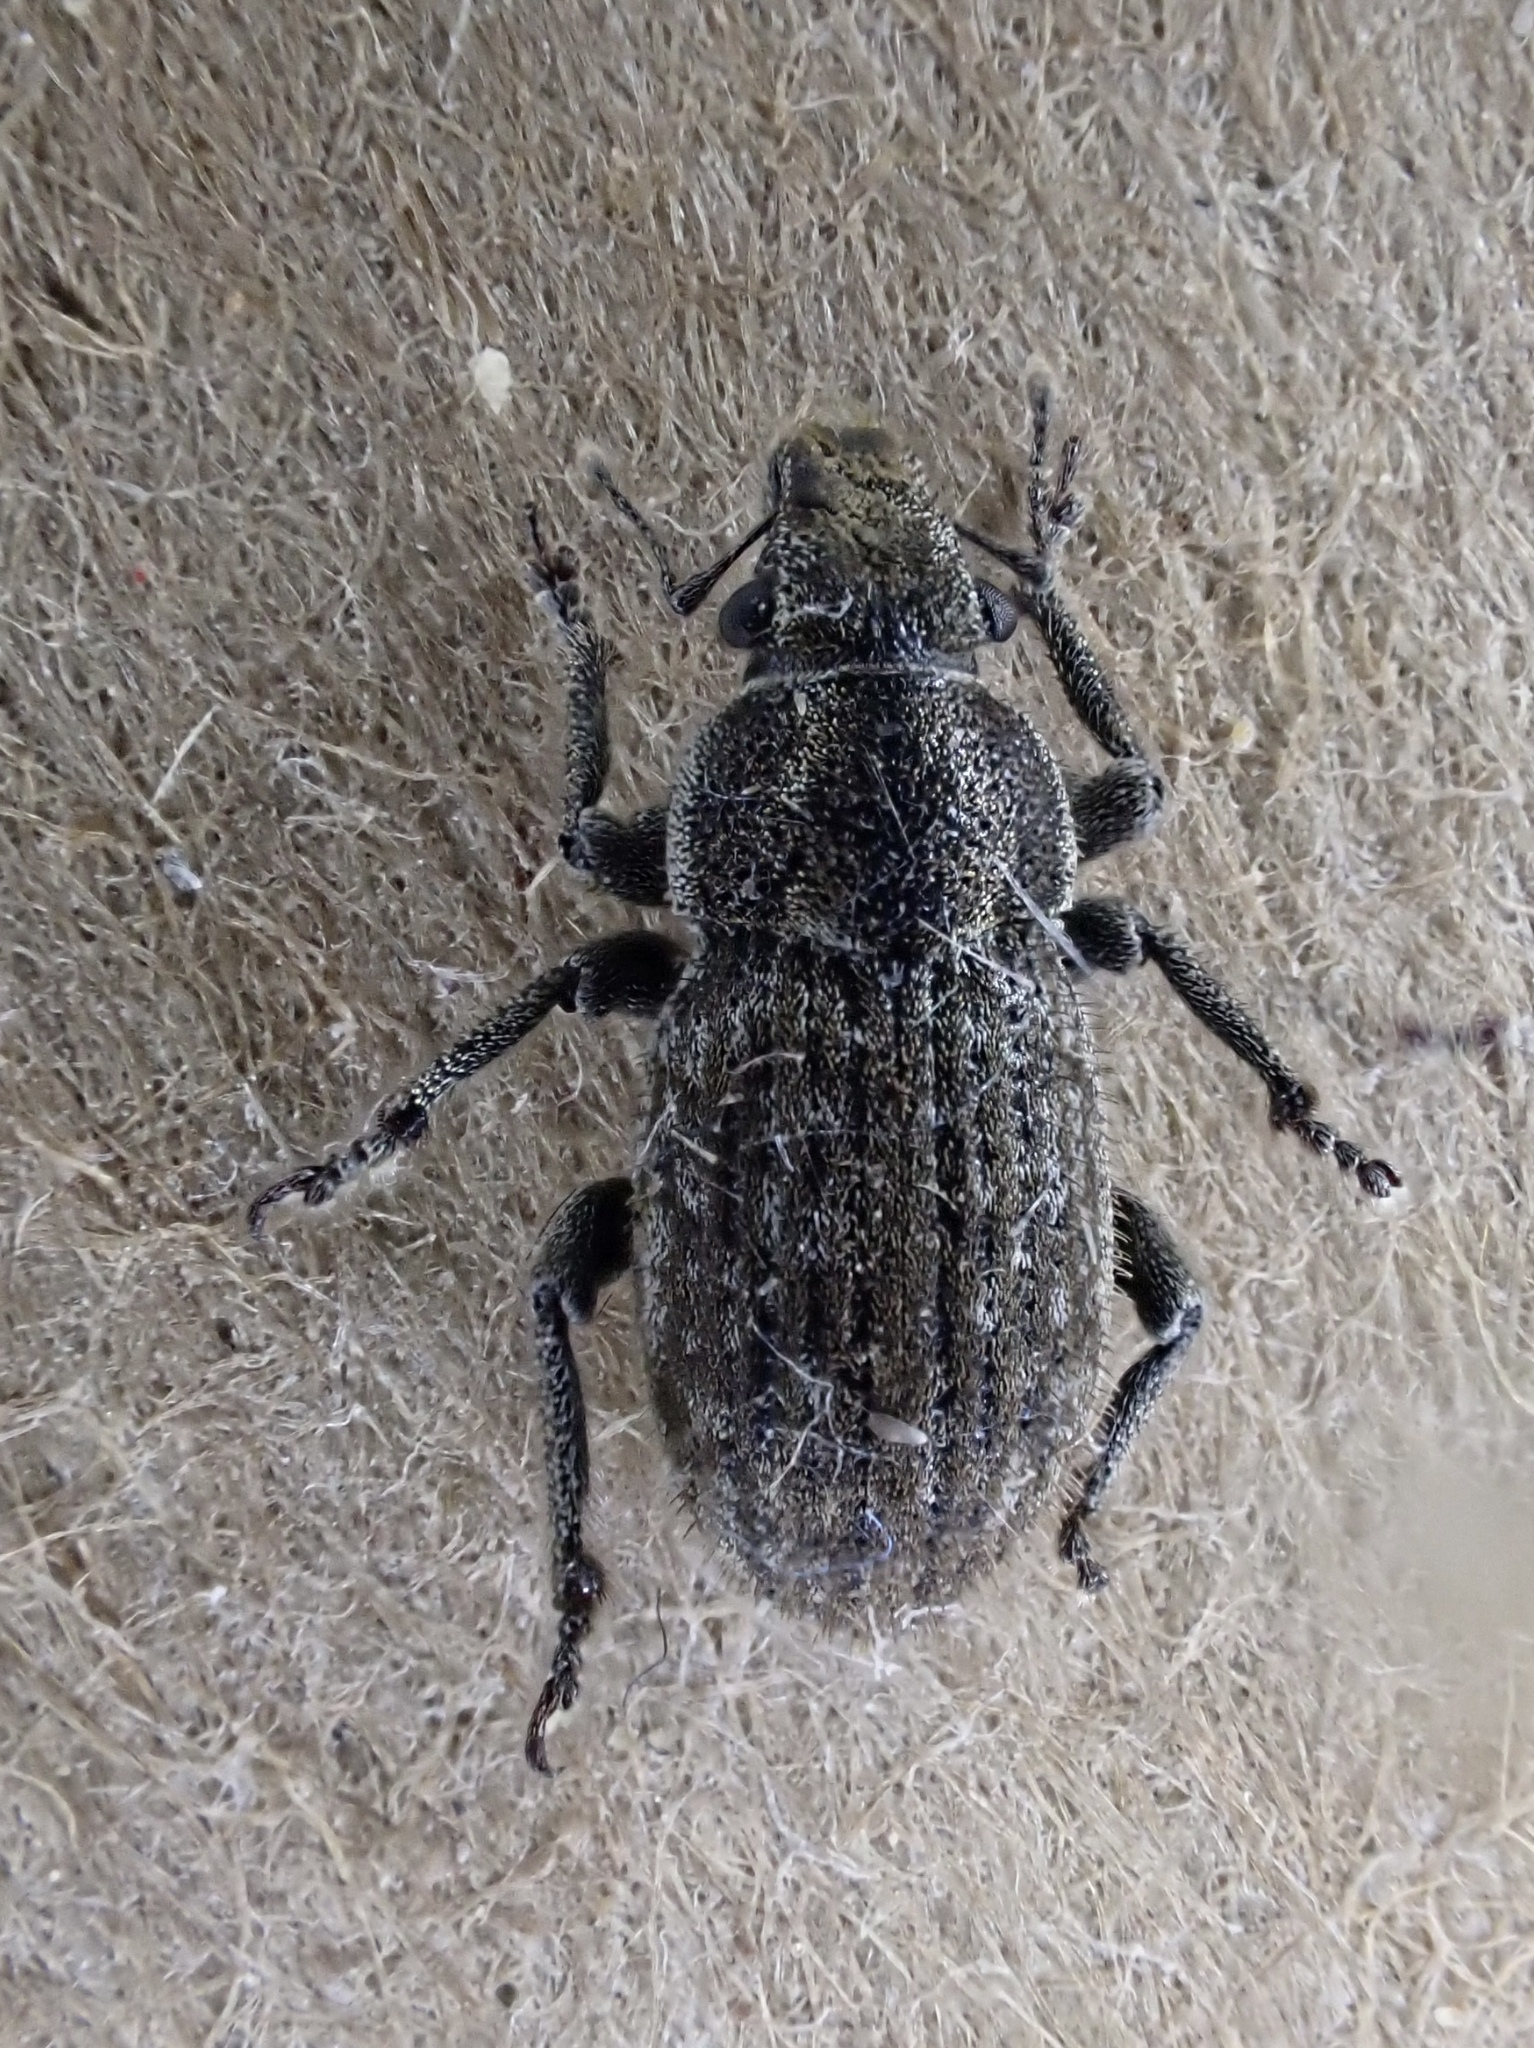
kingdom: Animalia
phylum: Arthropoda
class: Insecta
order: Coleoptera
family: Curculionidae
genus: Strophosoma
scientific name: Strophosoma faber
